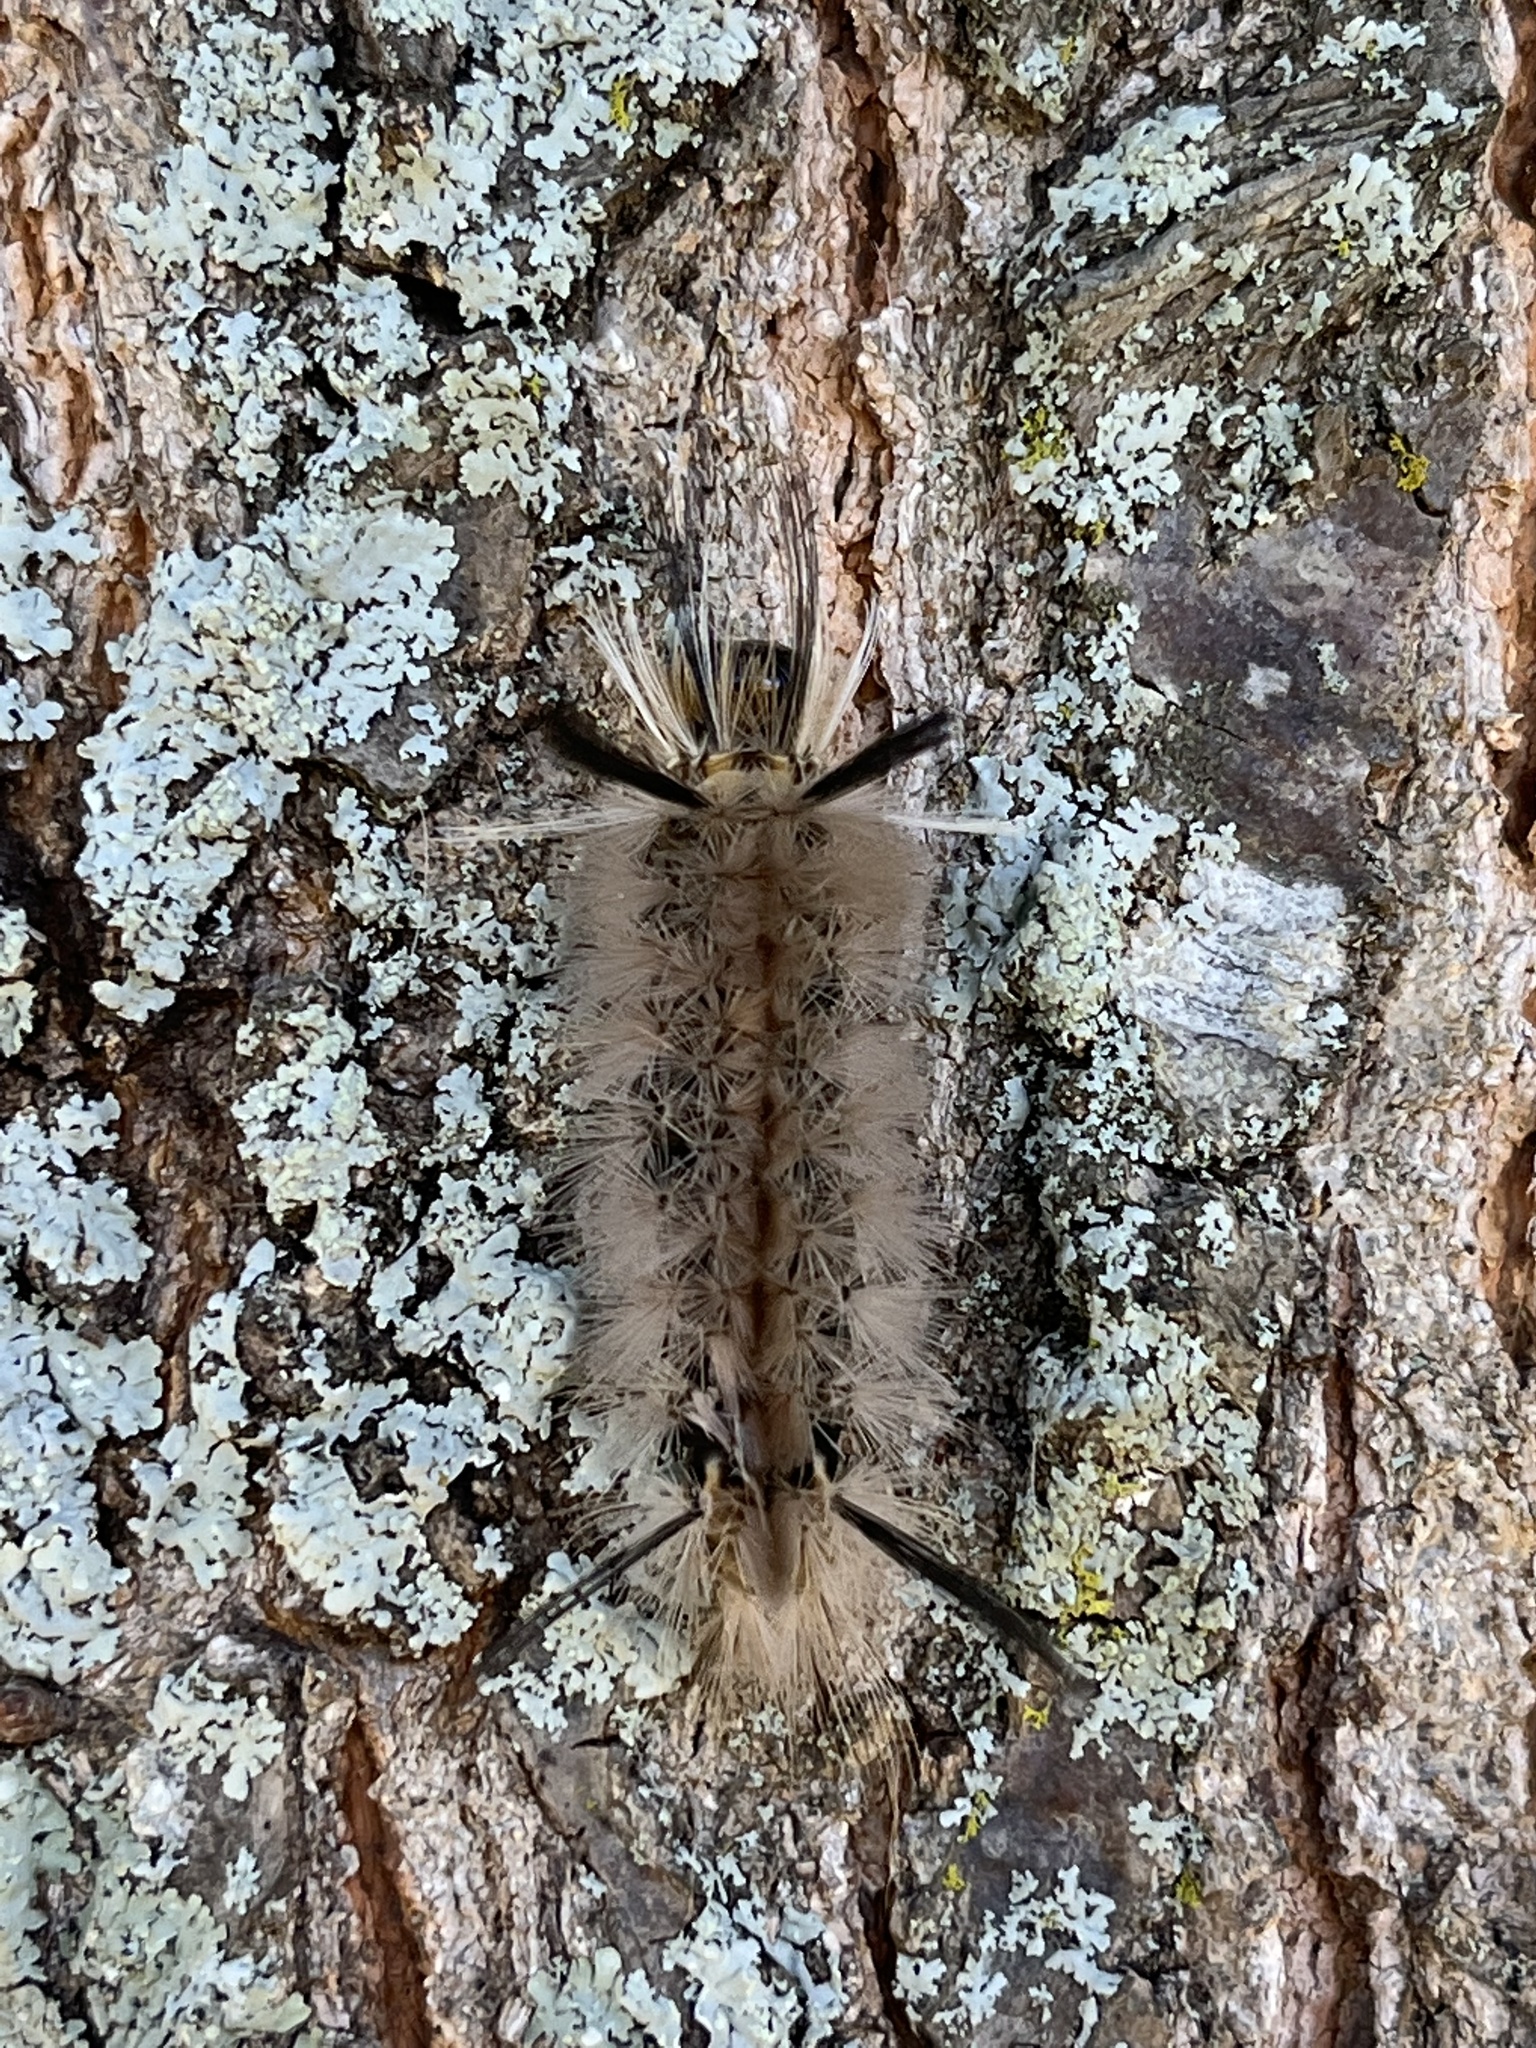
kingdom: Animalia
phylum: Arthropoda
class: Insecta
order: Lepidoptera
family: Erebidae
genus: Halysidota
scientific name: Halysidota tessellaris
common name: Banded tussock moth
